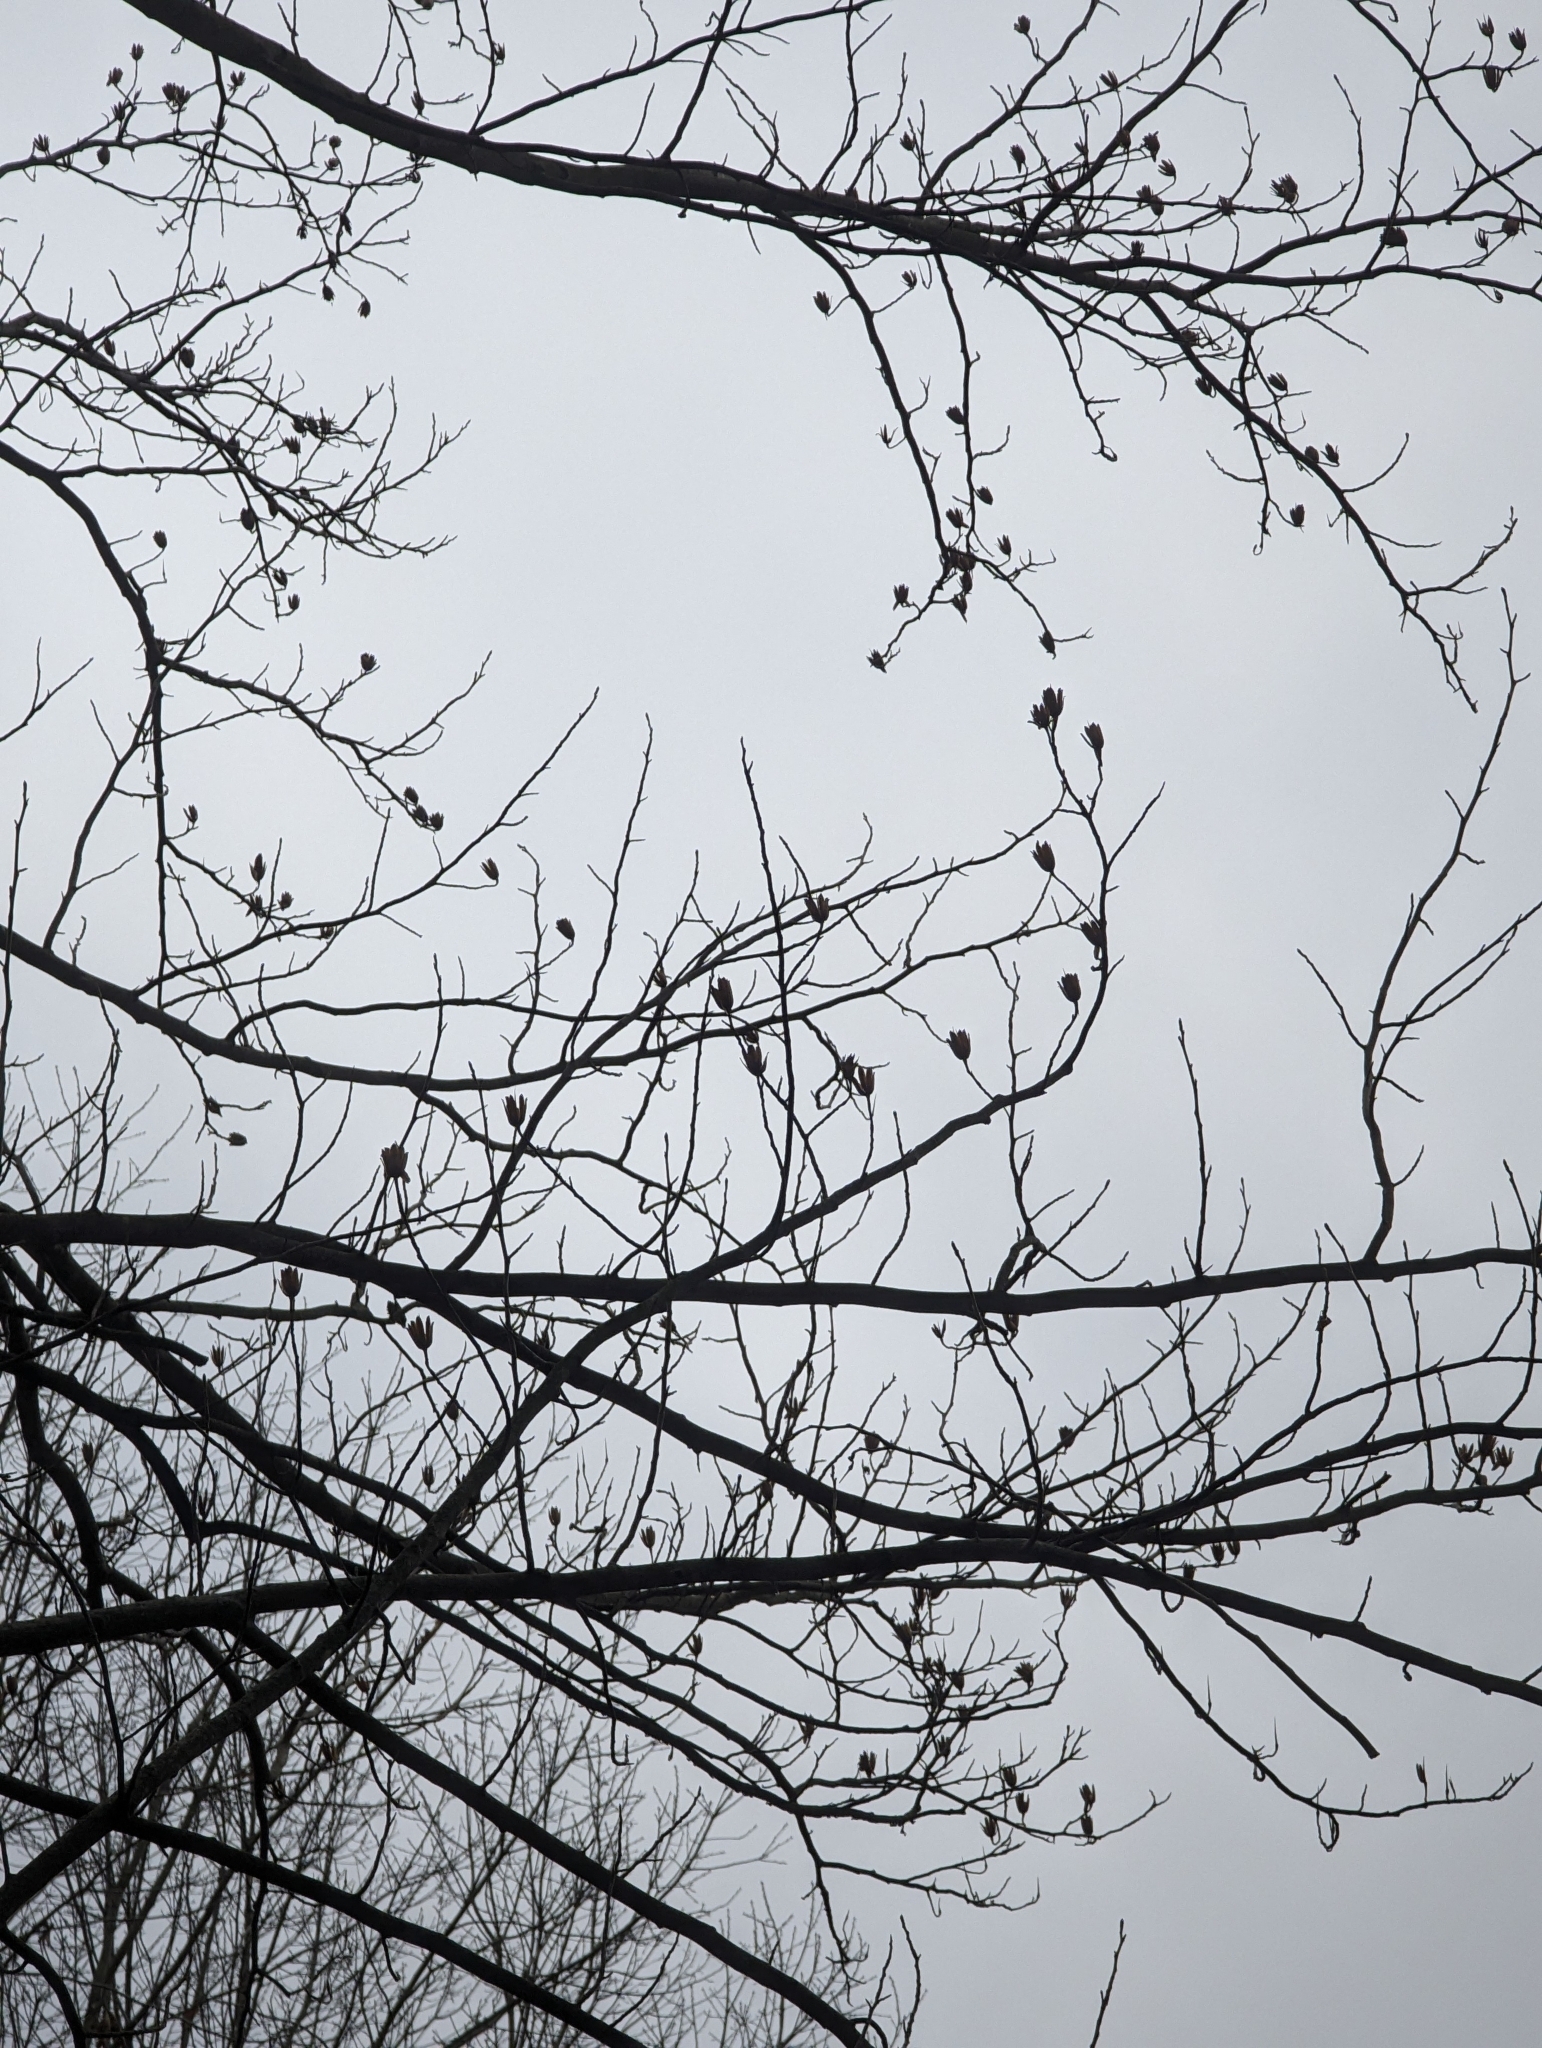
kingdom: Plantae
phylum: Tracheophyta
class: Magnoliopsida
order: Magnoliales
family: Magnoliaceae
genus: Liriodendron
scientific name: Liriodendron tulipifera
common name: Tulip tree
